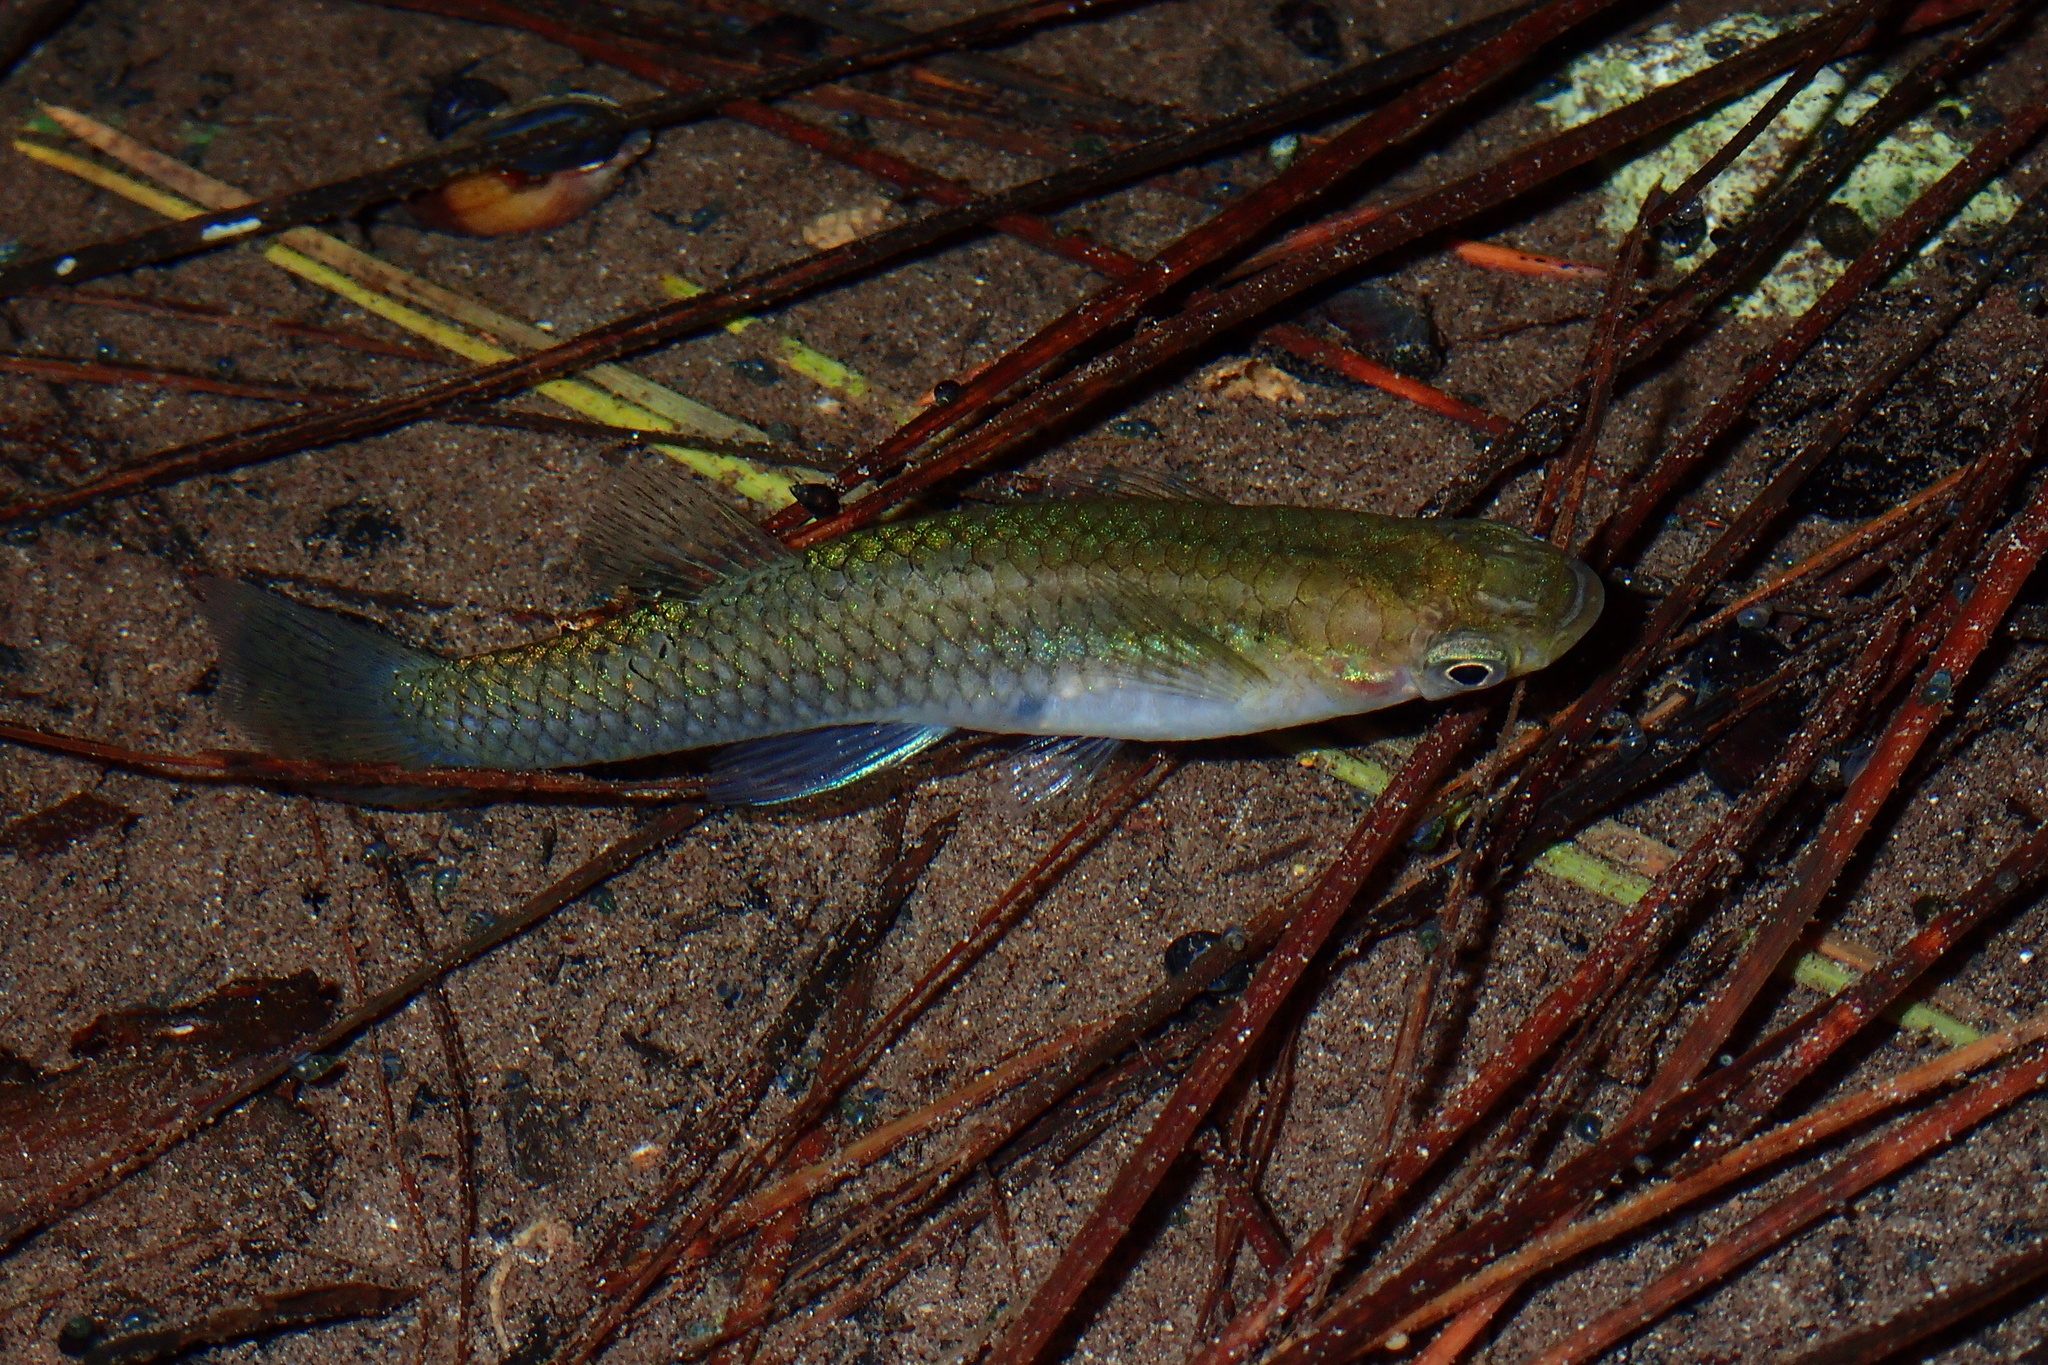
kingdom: Animalia
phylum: Chordata
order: Cyprinodontiformes
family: Poeciliidae
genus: Gambusia
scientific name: Gambusia holbrooki
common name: Eastern mosquitofish
